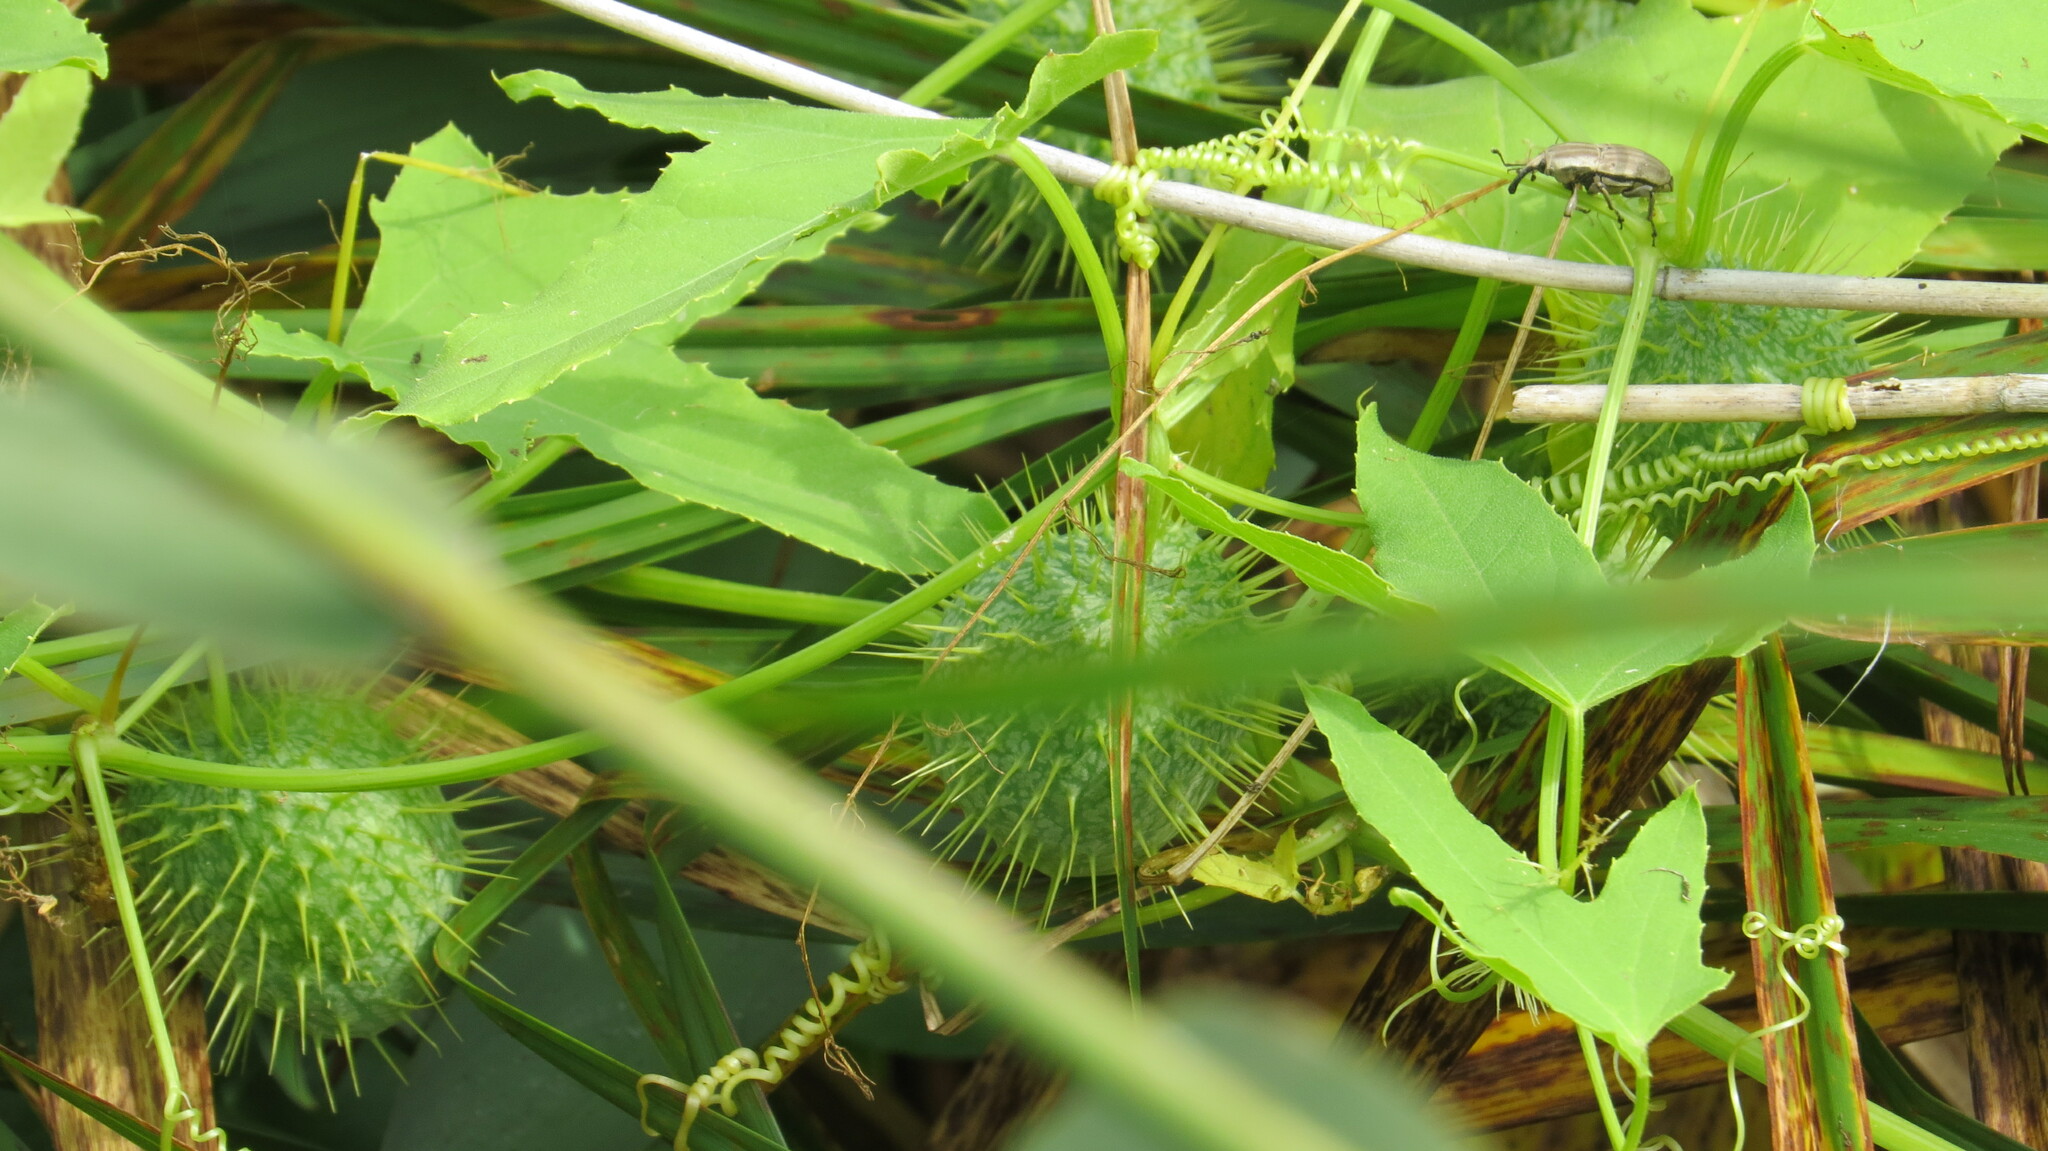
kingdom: Plantae
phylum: Tracheophyta
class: Magnoliopsida
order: Cucurbitales
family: Cucurbitaceae
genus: Echinocystis
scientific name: Echinocystis lobata
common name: Wild cucumber
